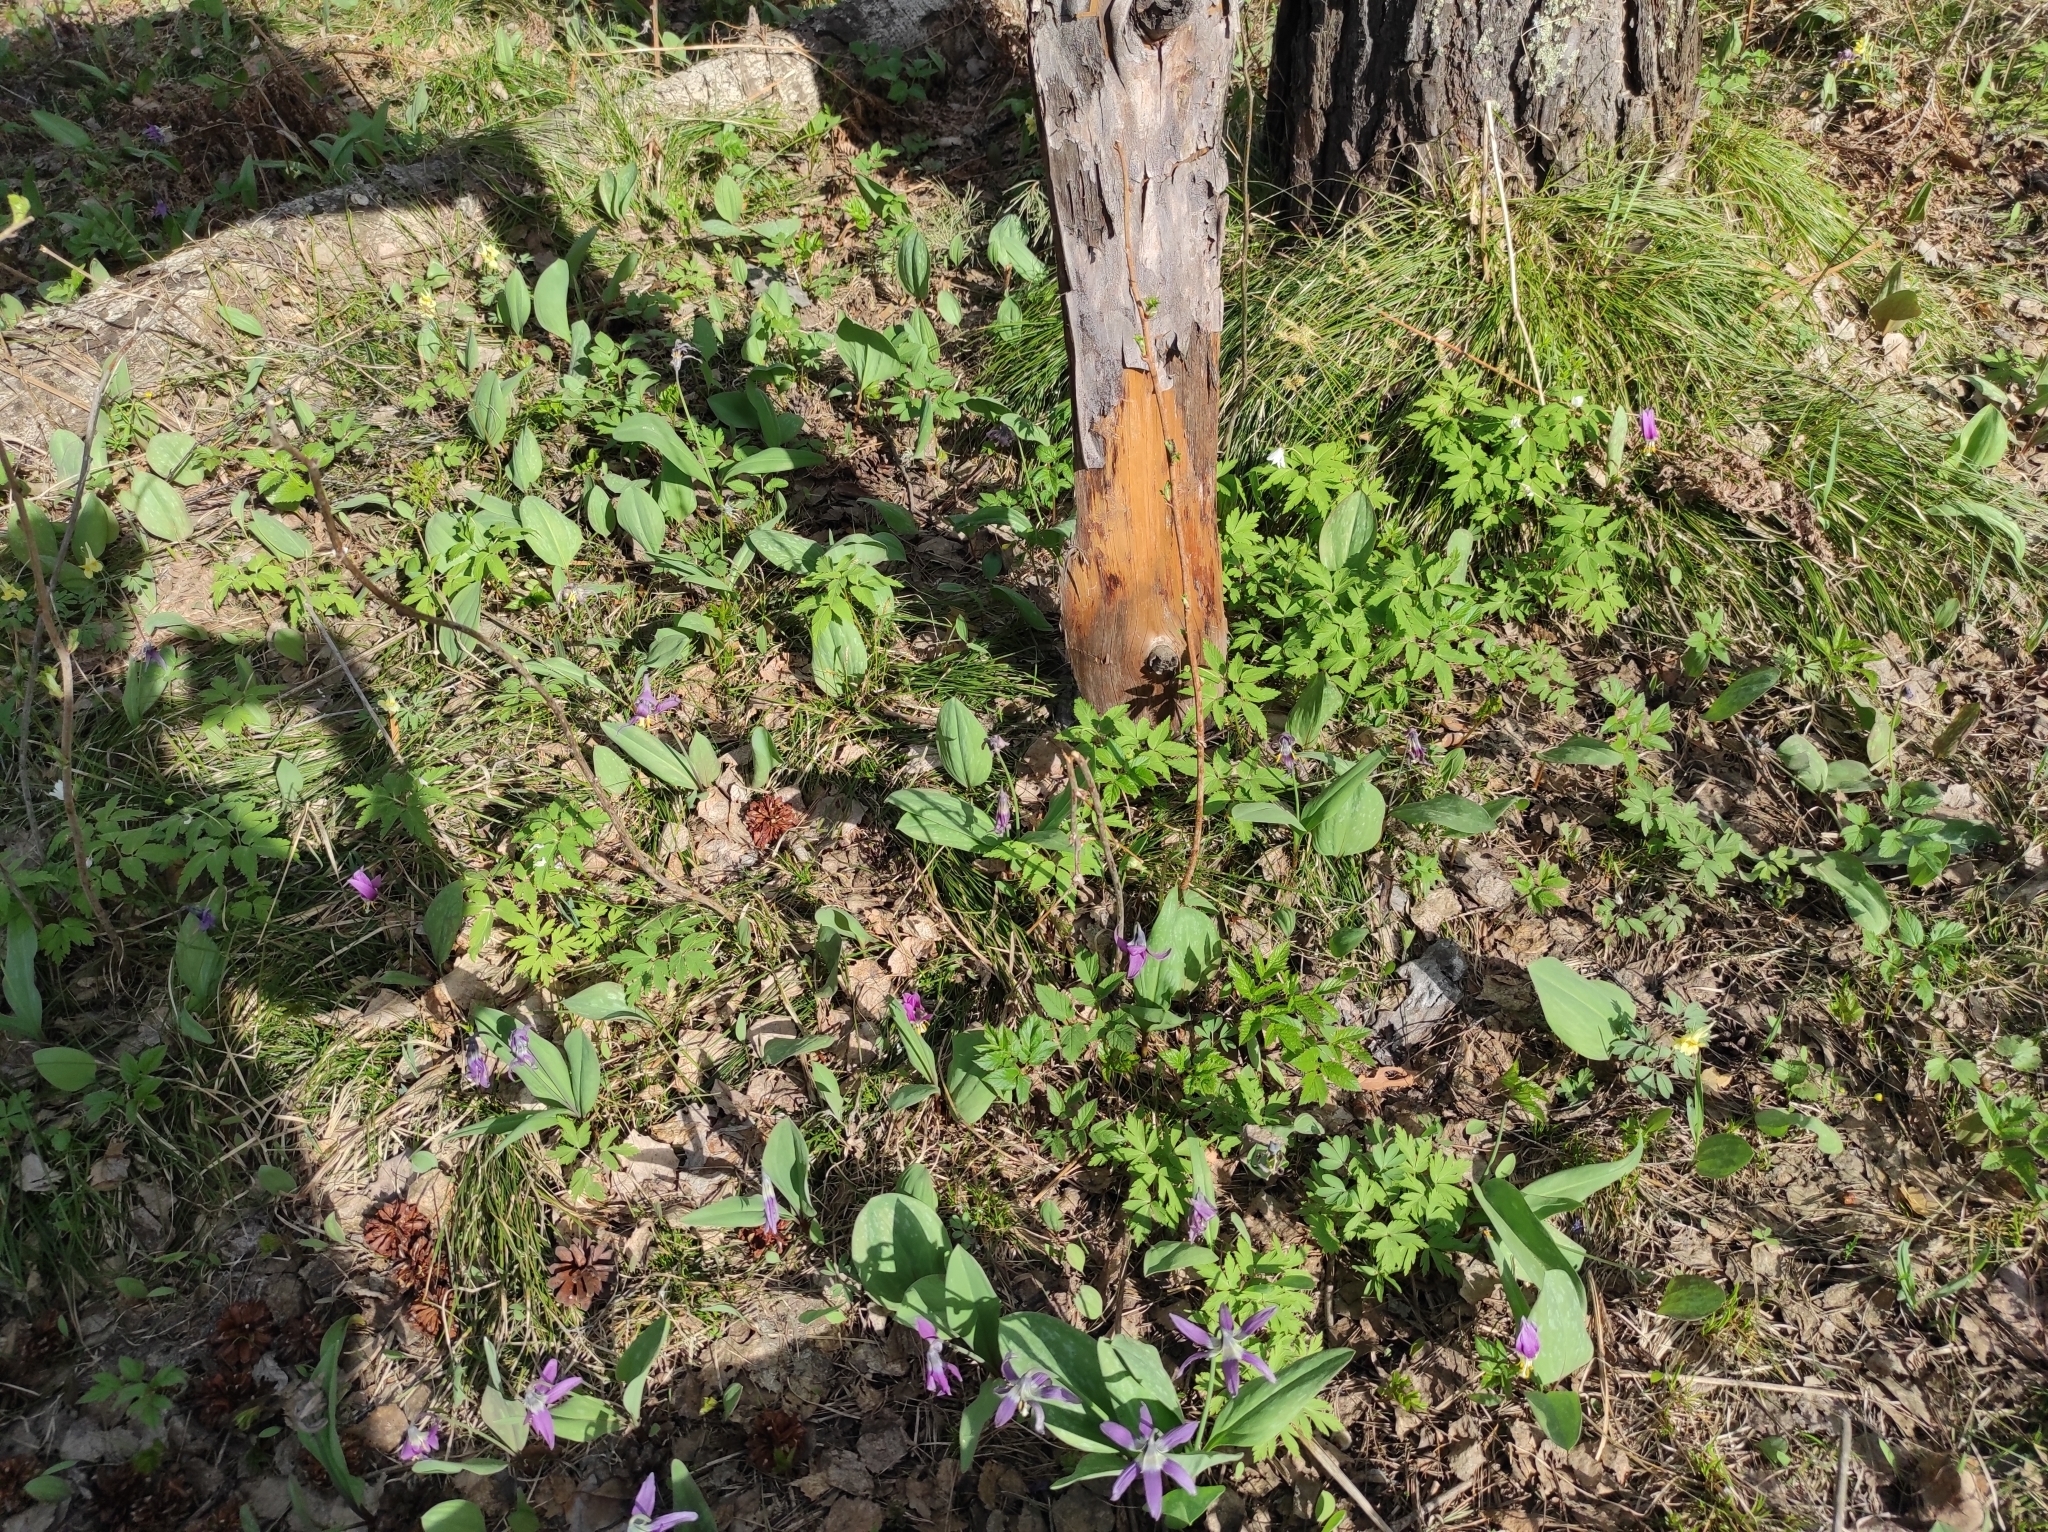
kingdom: Plantae
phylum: Tracheophyta
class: Magnoliopsida
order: Ranunculales
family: Ranunculaceae
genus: Anemone
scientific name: Anemone altaica
